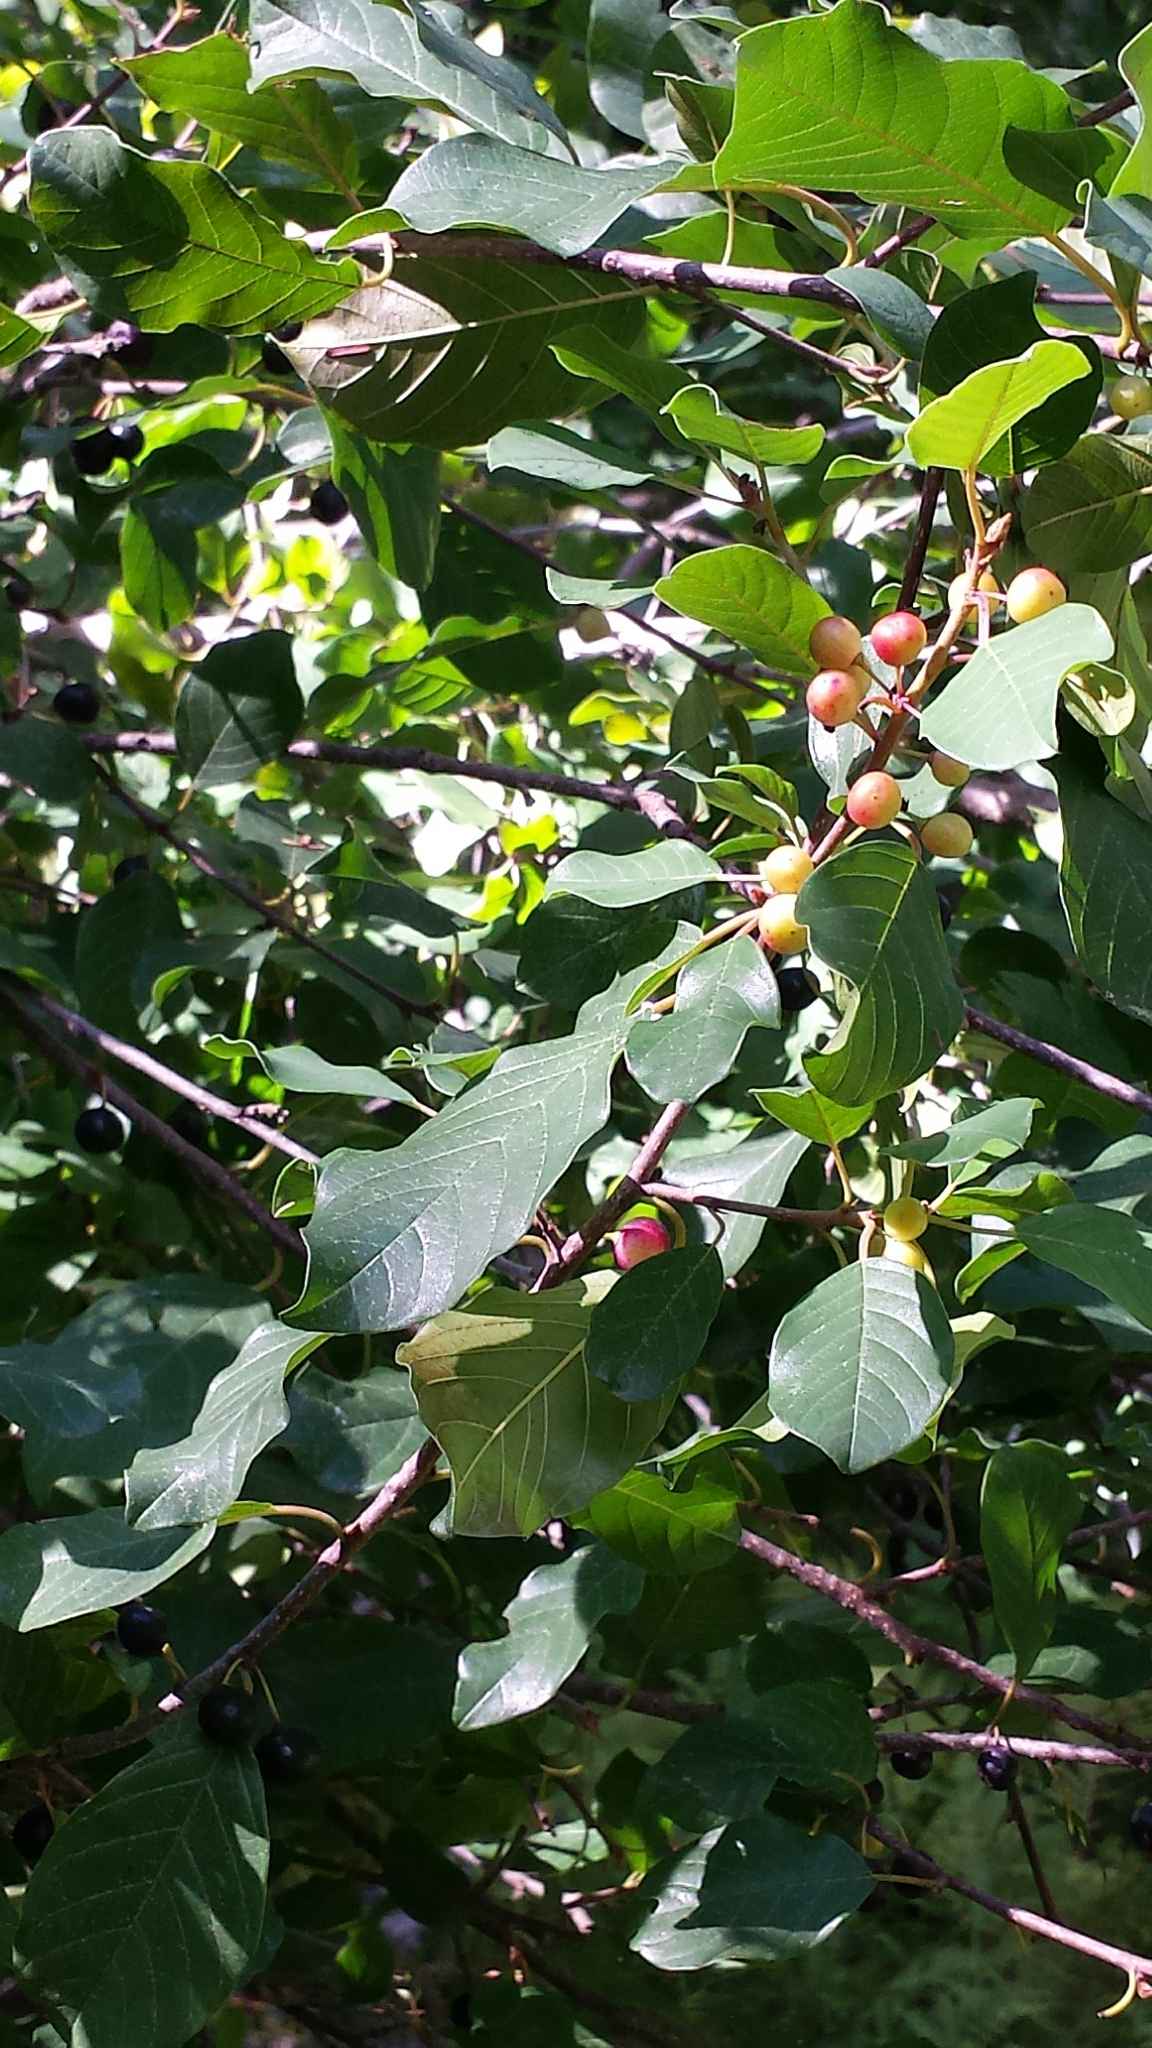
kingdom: Plantae
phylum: Tracheophyta
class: Magnoliopsida
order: Rosales
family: Rhamnaceae
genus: Frangula
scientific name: Frangula alnus
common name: Alder buckthorn
